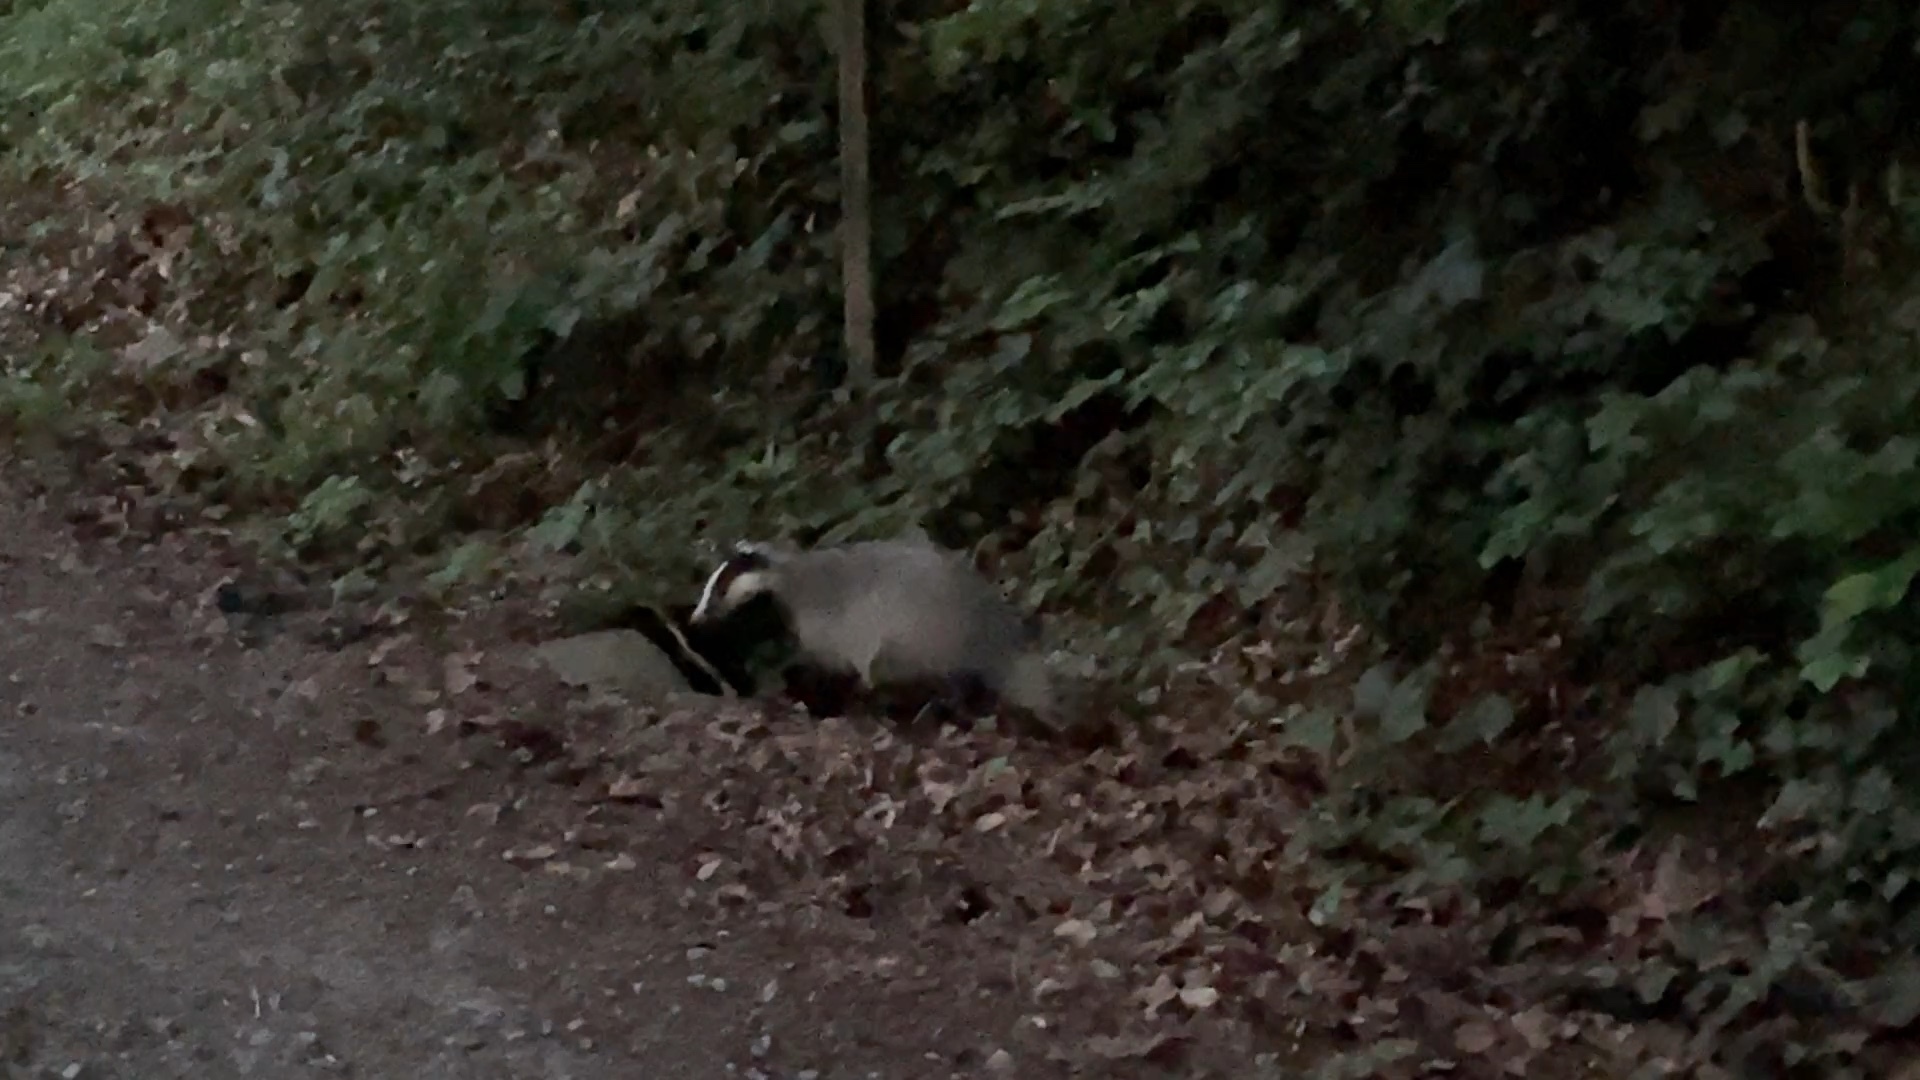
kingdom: Animalia
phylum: Chordata
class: Mammalia
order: Carnivora
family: Mustelidae
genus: Meles
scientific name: Meles meles
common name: Eurasian badger
